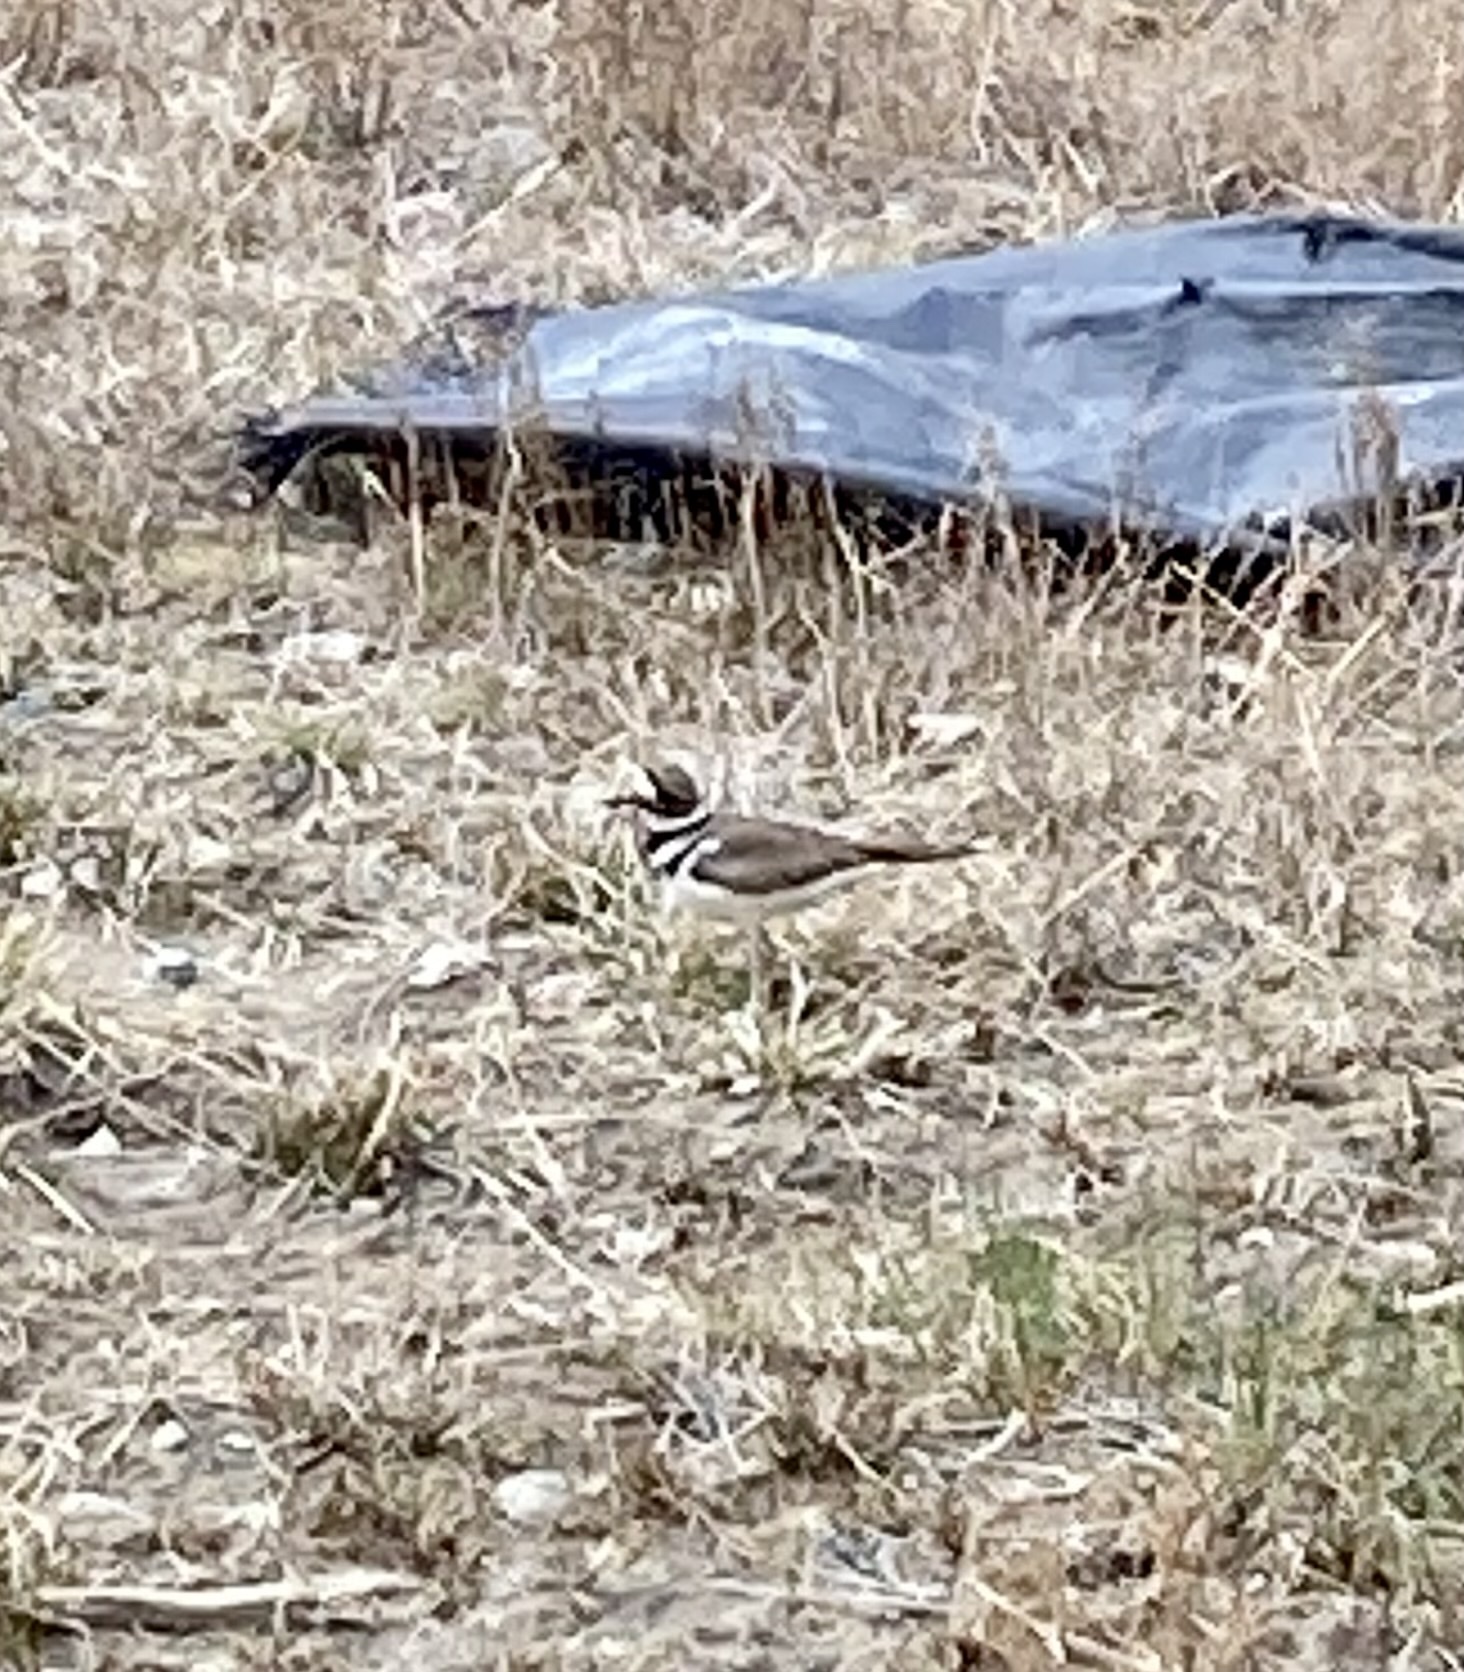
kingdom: Animalia
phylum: Chordata
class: Aves
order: Charadriiformes
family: Charadriidae
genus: Charadrius
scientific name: Charadrius vociferus
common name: Killdeer
